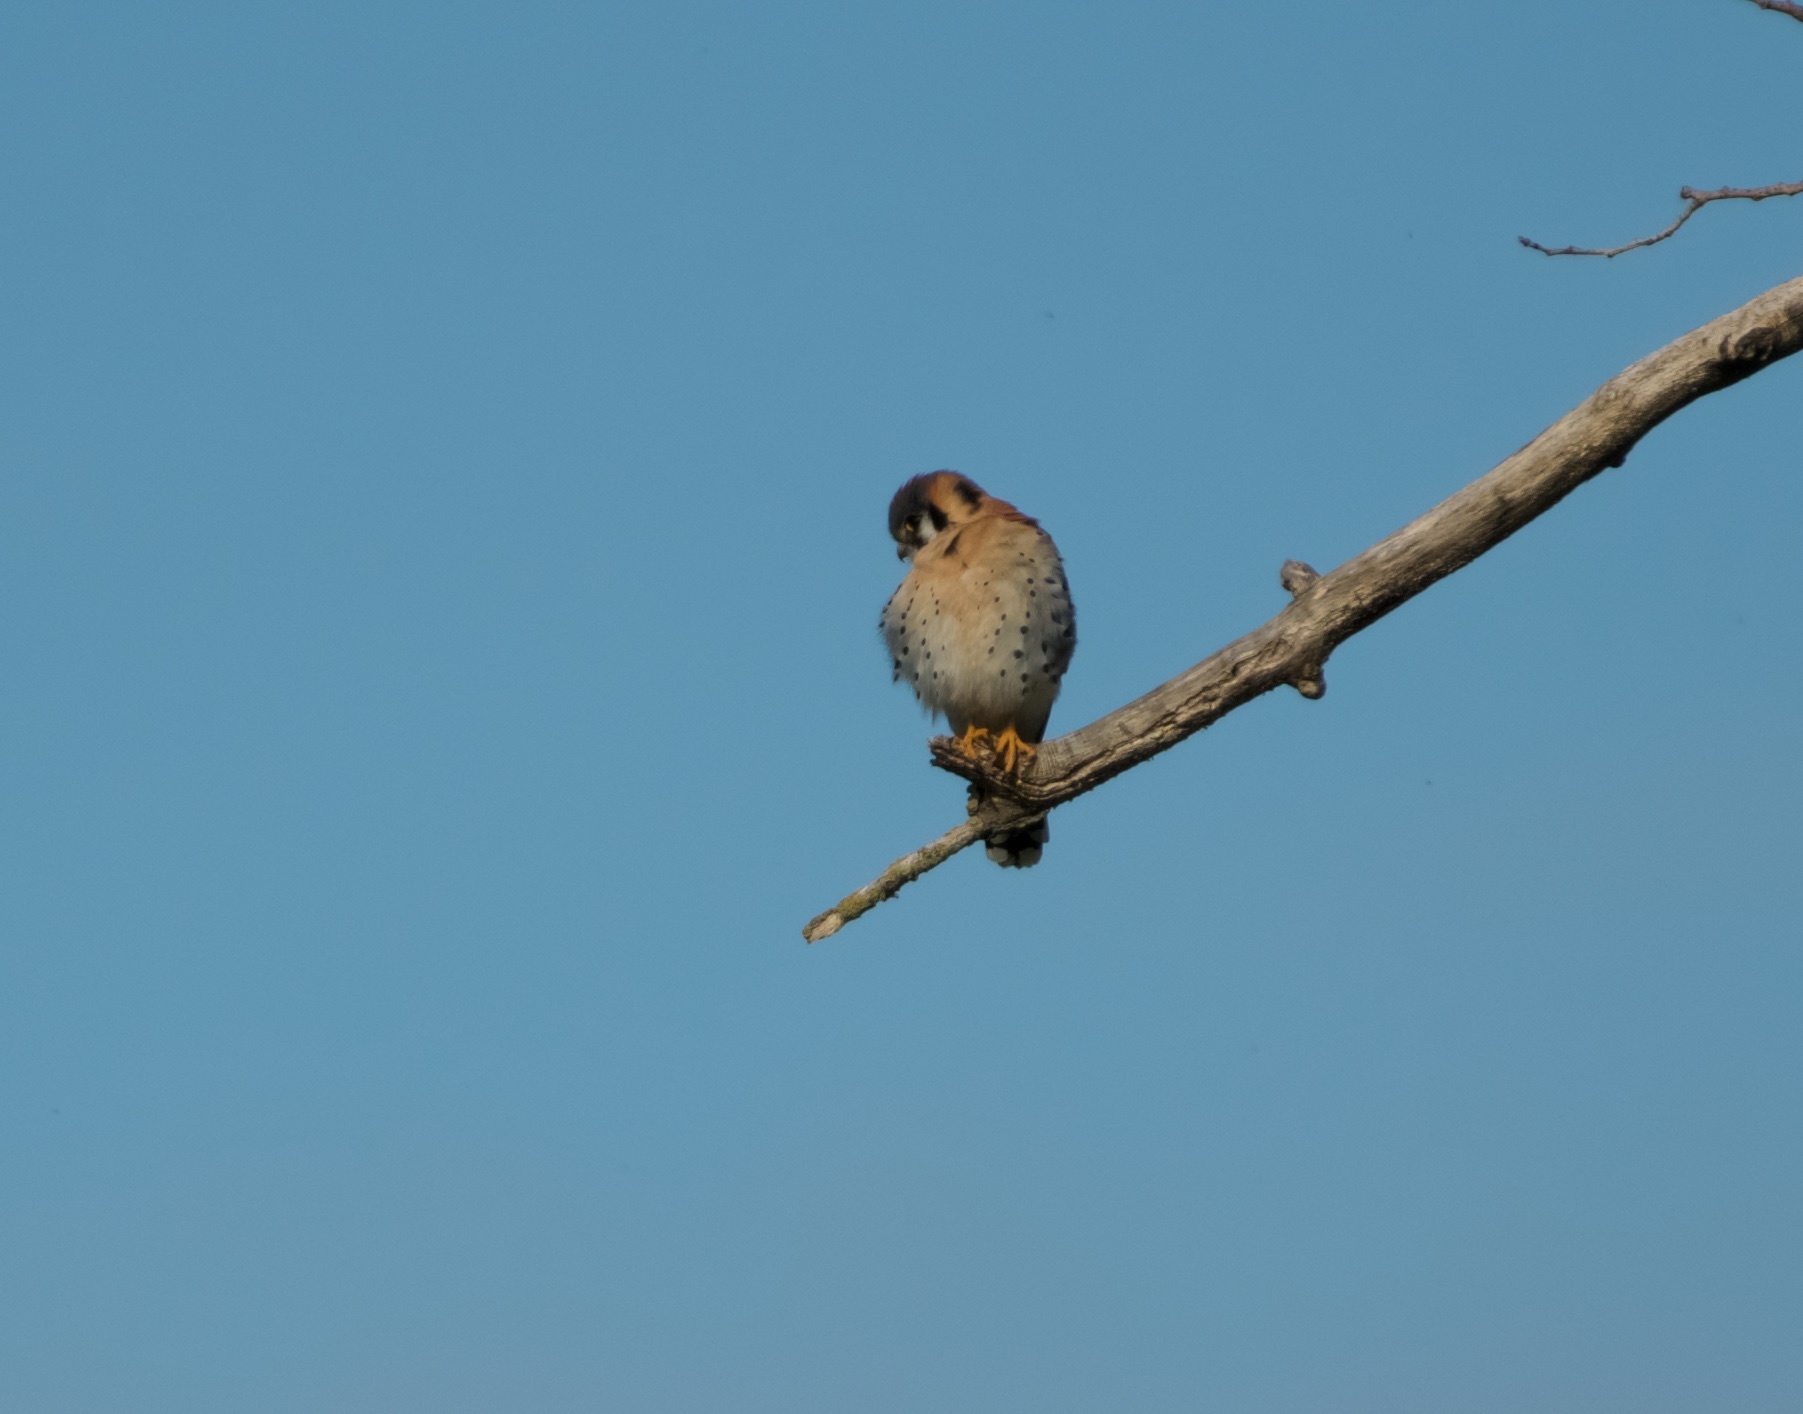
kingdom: Animalia
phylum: Chordata
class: Aves
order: Falconiformes
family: Falconidae
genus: Falco
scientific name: Falco sparverius
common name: American kestrel
